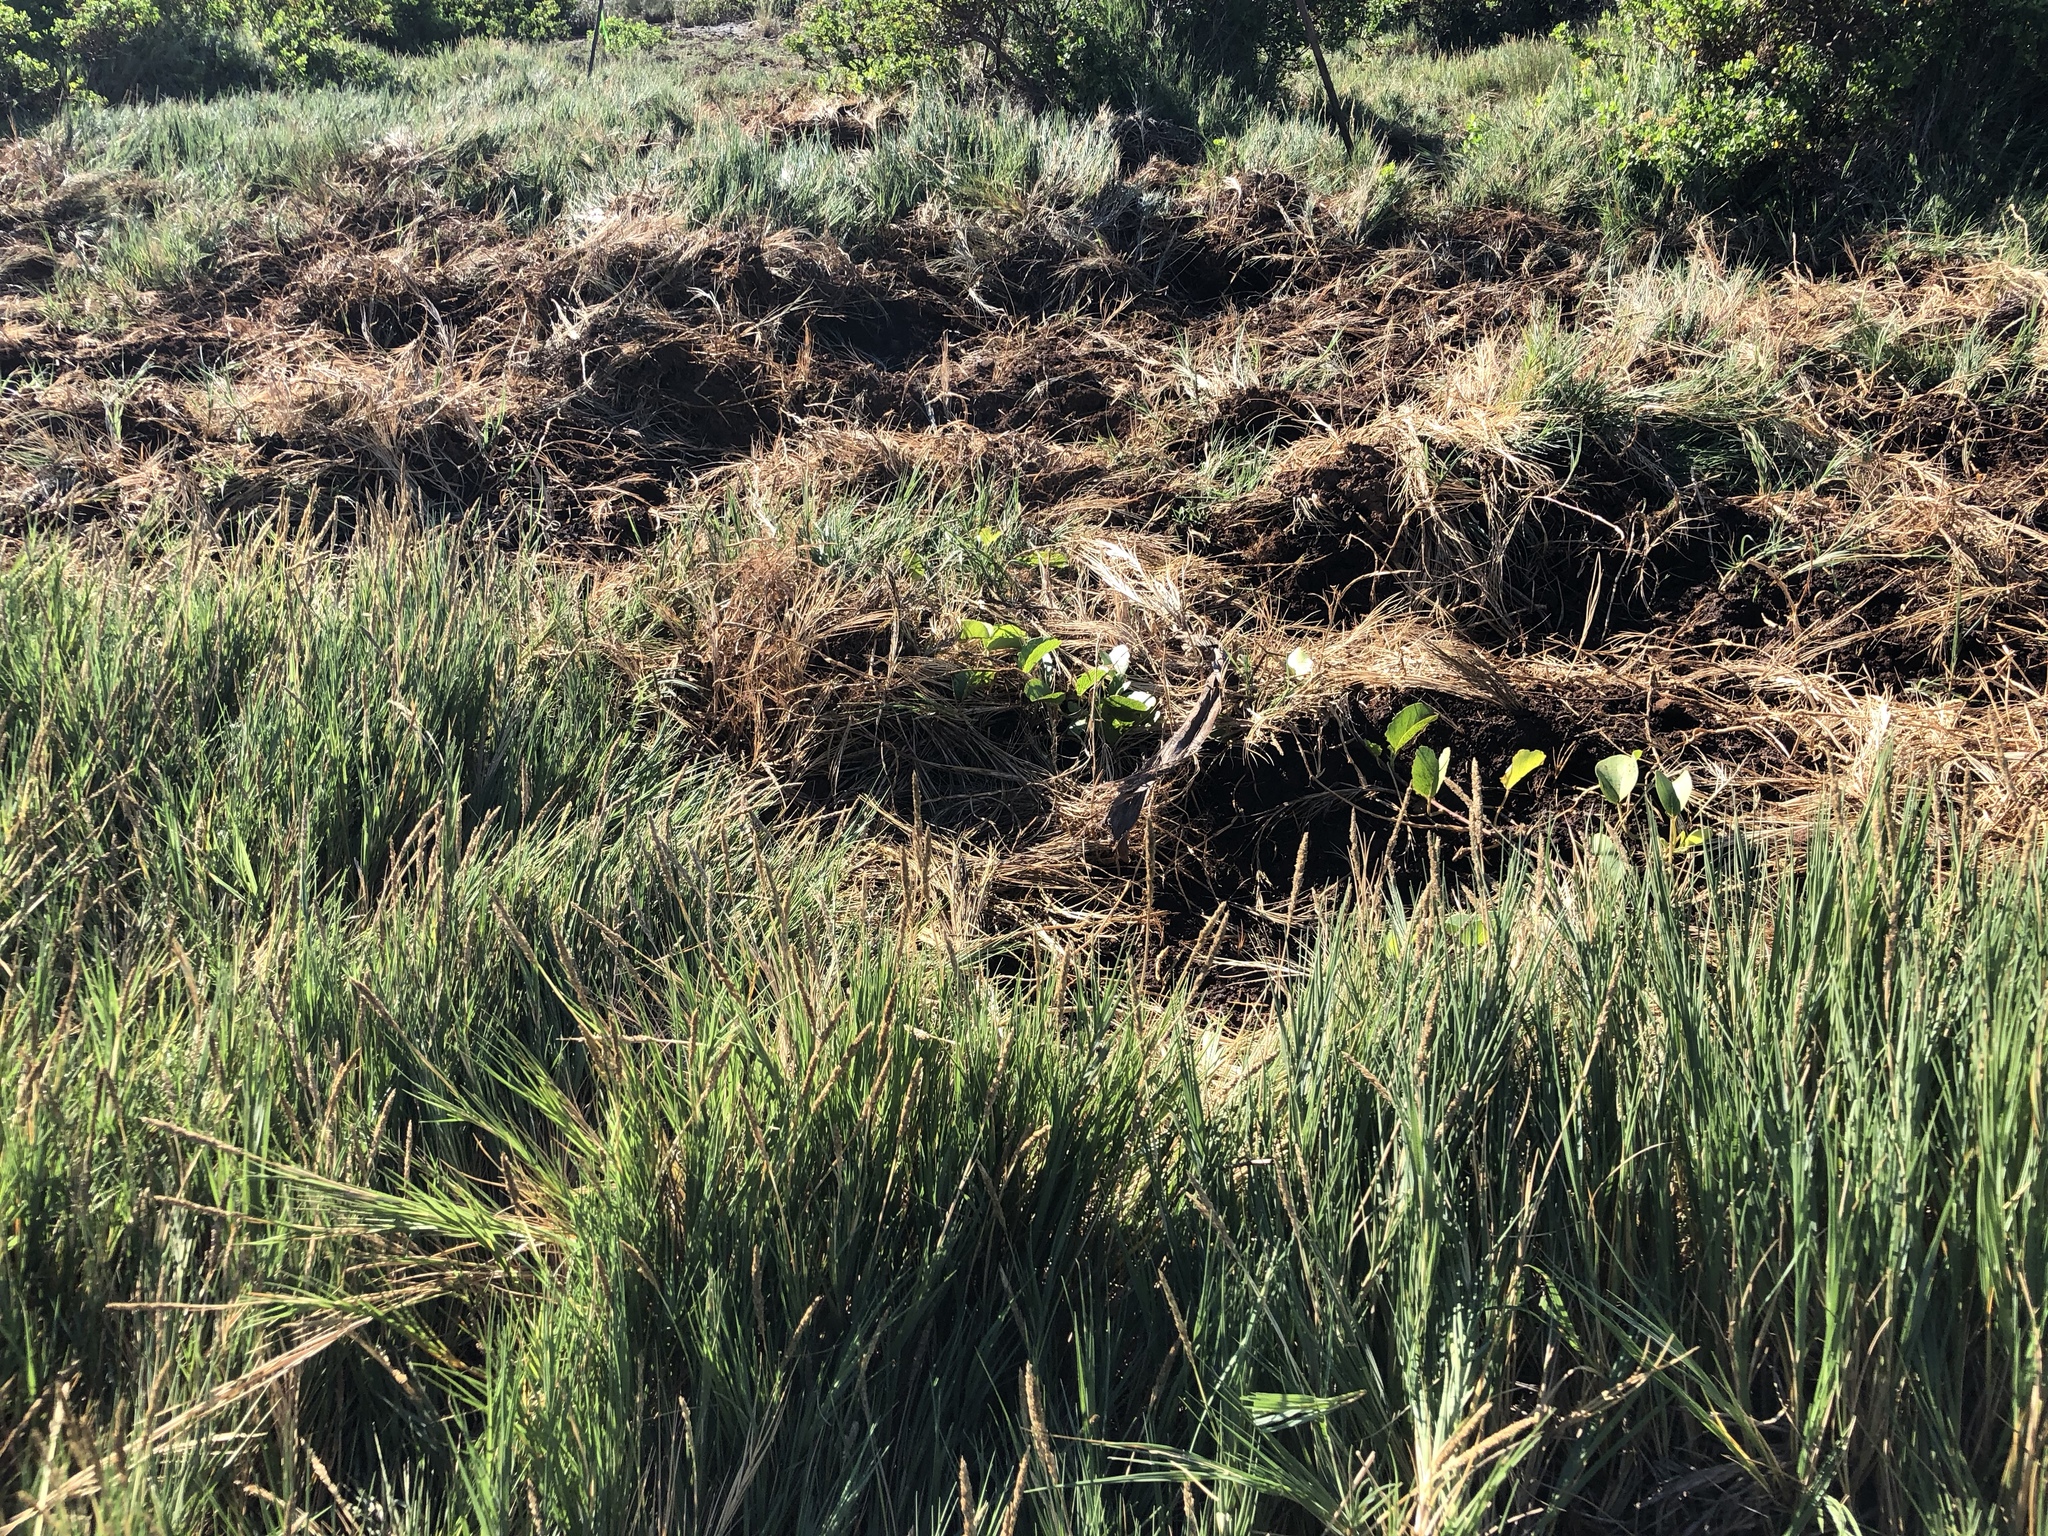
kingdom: Plantae
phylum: Tracheophyta
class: Liliopsida
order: Poales
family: Poaceae
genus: Sporobolus
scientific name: Sporobolus virginicus
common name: Beach dropseed
